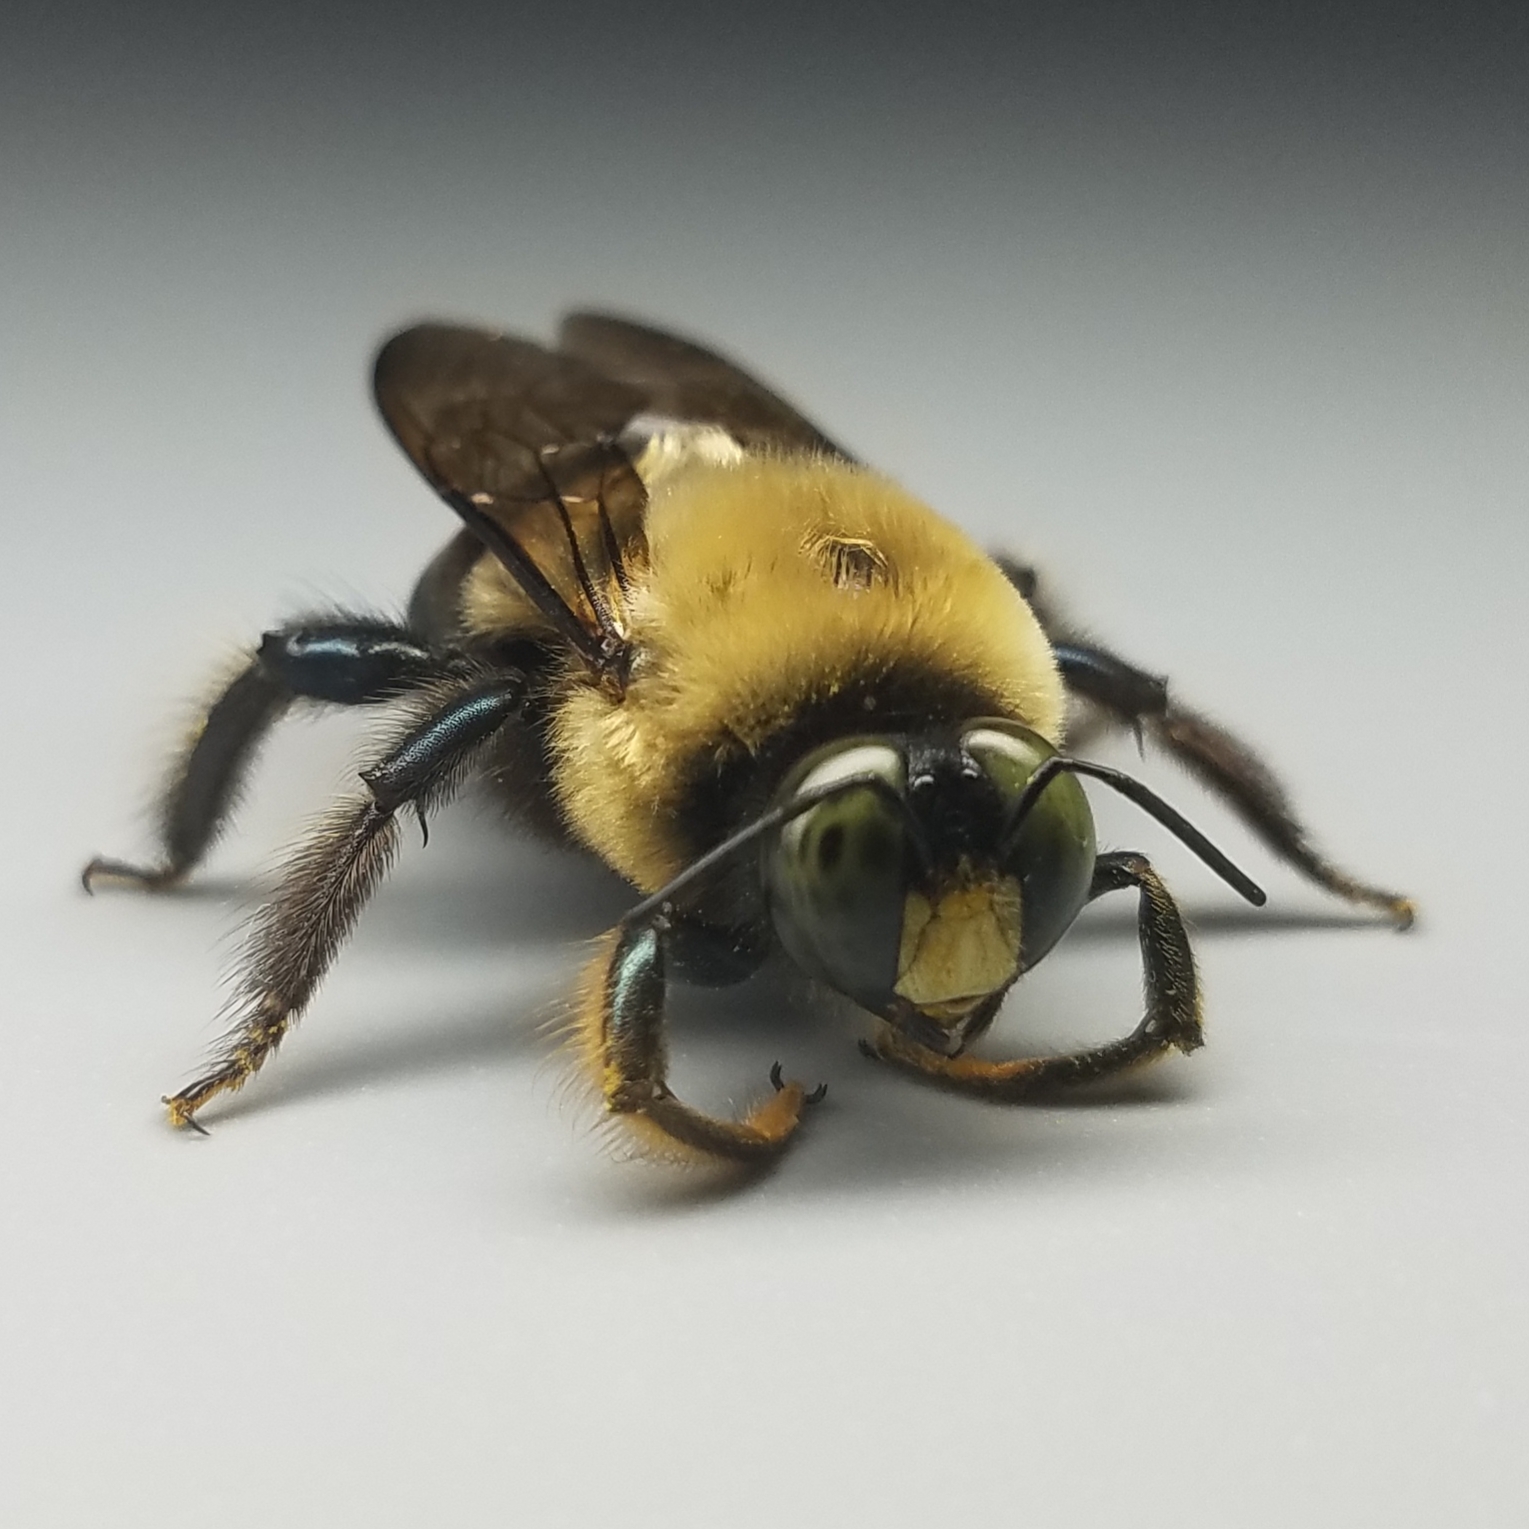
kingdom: Animalia
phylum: Arthropoda
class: Insecta
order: Hymenoptera
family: Apidae
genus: Xylocopa
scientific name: Xylocopa virginica
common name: Carpenter bee
